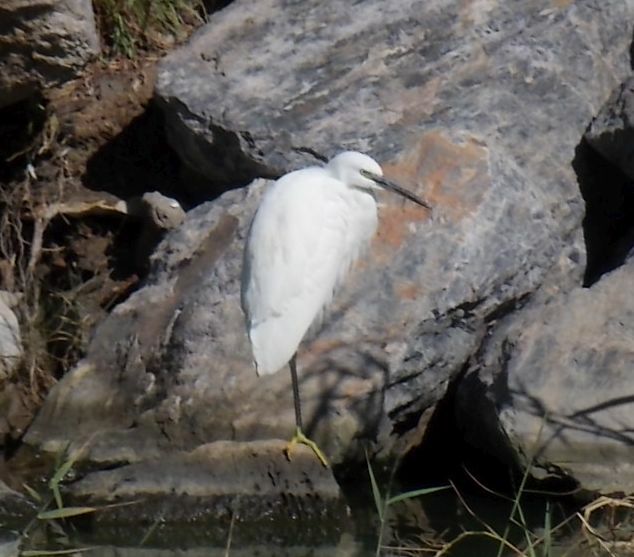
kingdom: Animalia
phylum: Chordata
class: Aves
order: Pelecaniformes
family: Ardeidae
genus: Egretta
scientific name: Egretta garzetta
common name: Little egret
